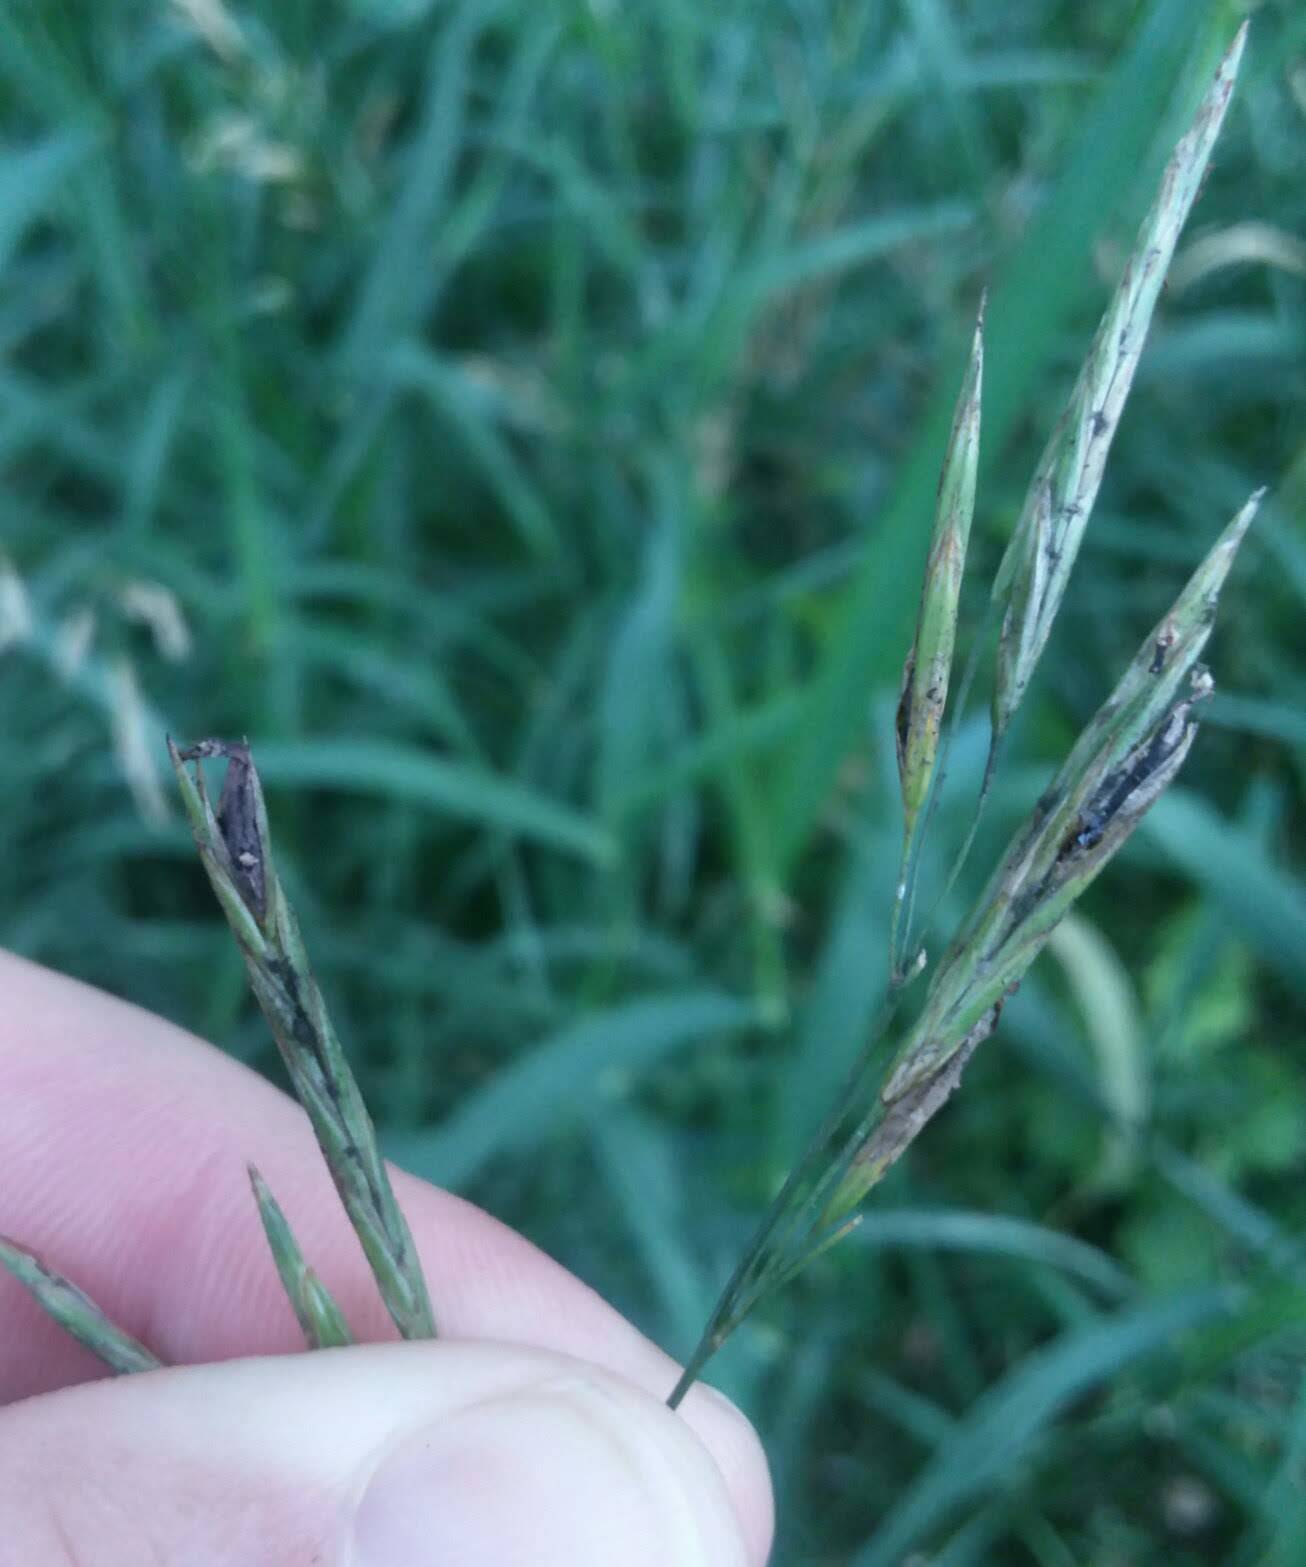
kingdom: Fungi
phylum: Ascomycota
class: Sordariomycetes
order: Hypocreales
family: Clavicipitaceae
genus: Claviceps
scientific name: Claviceps purpurea
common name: Rye ergot
